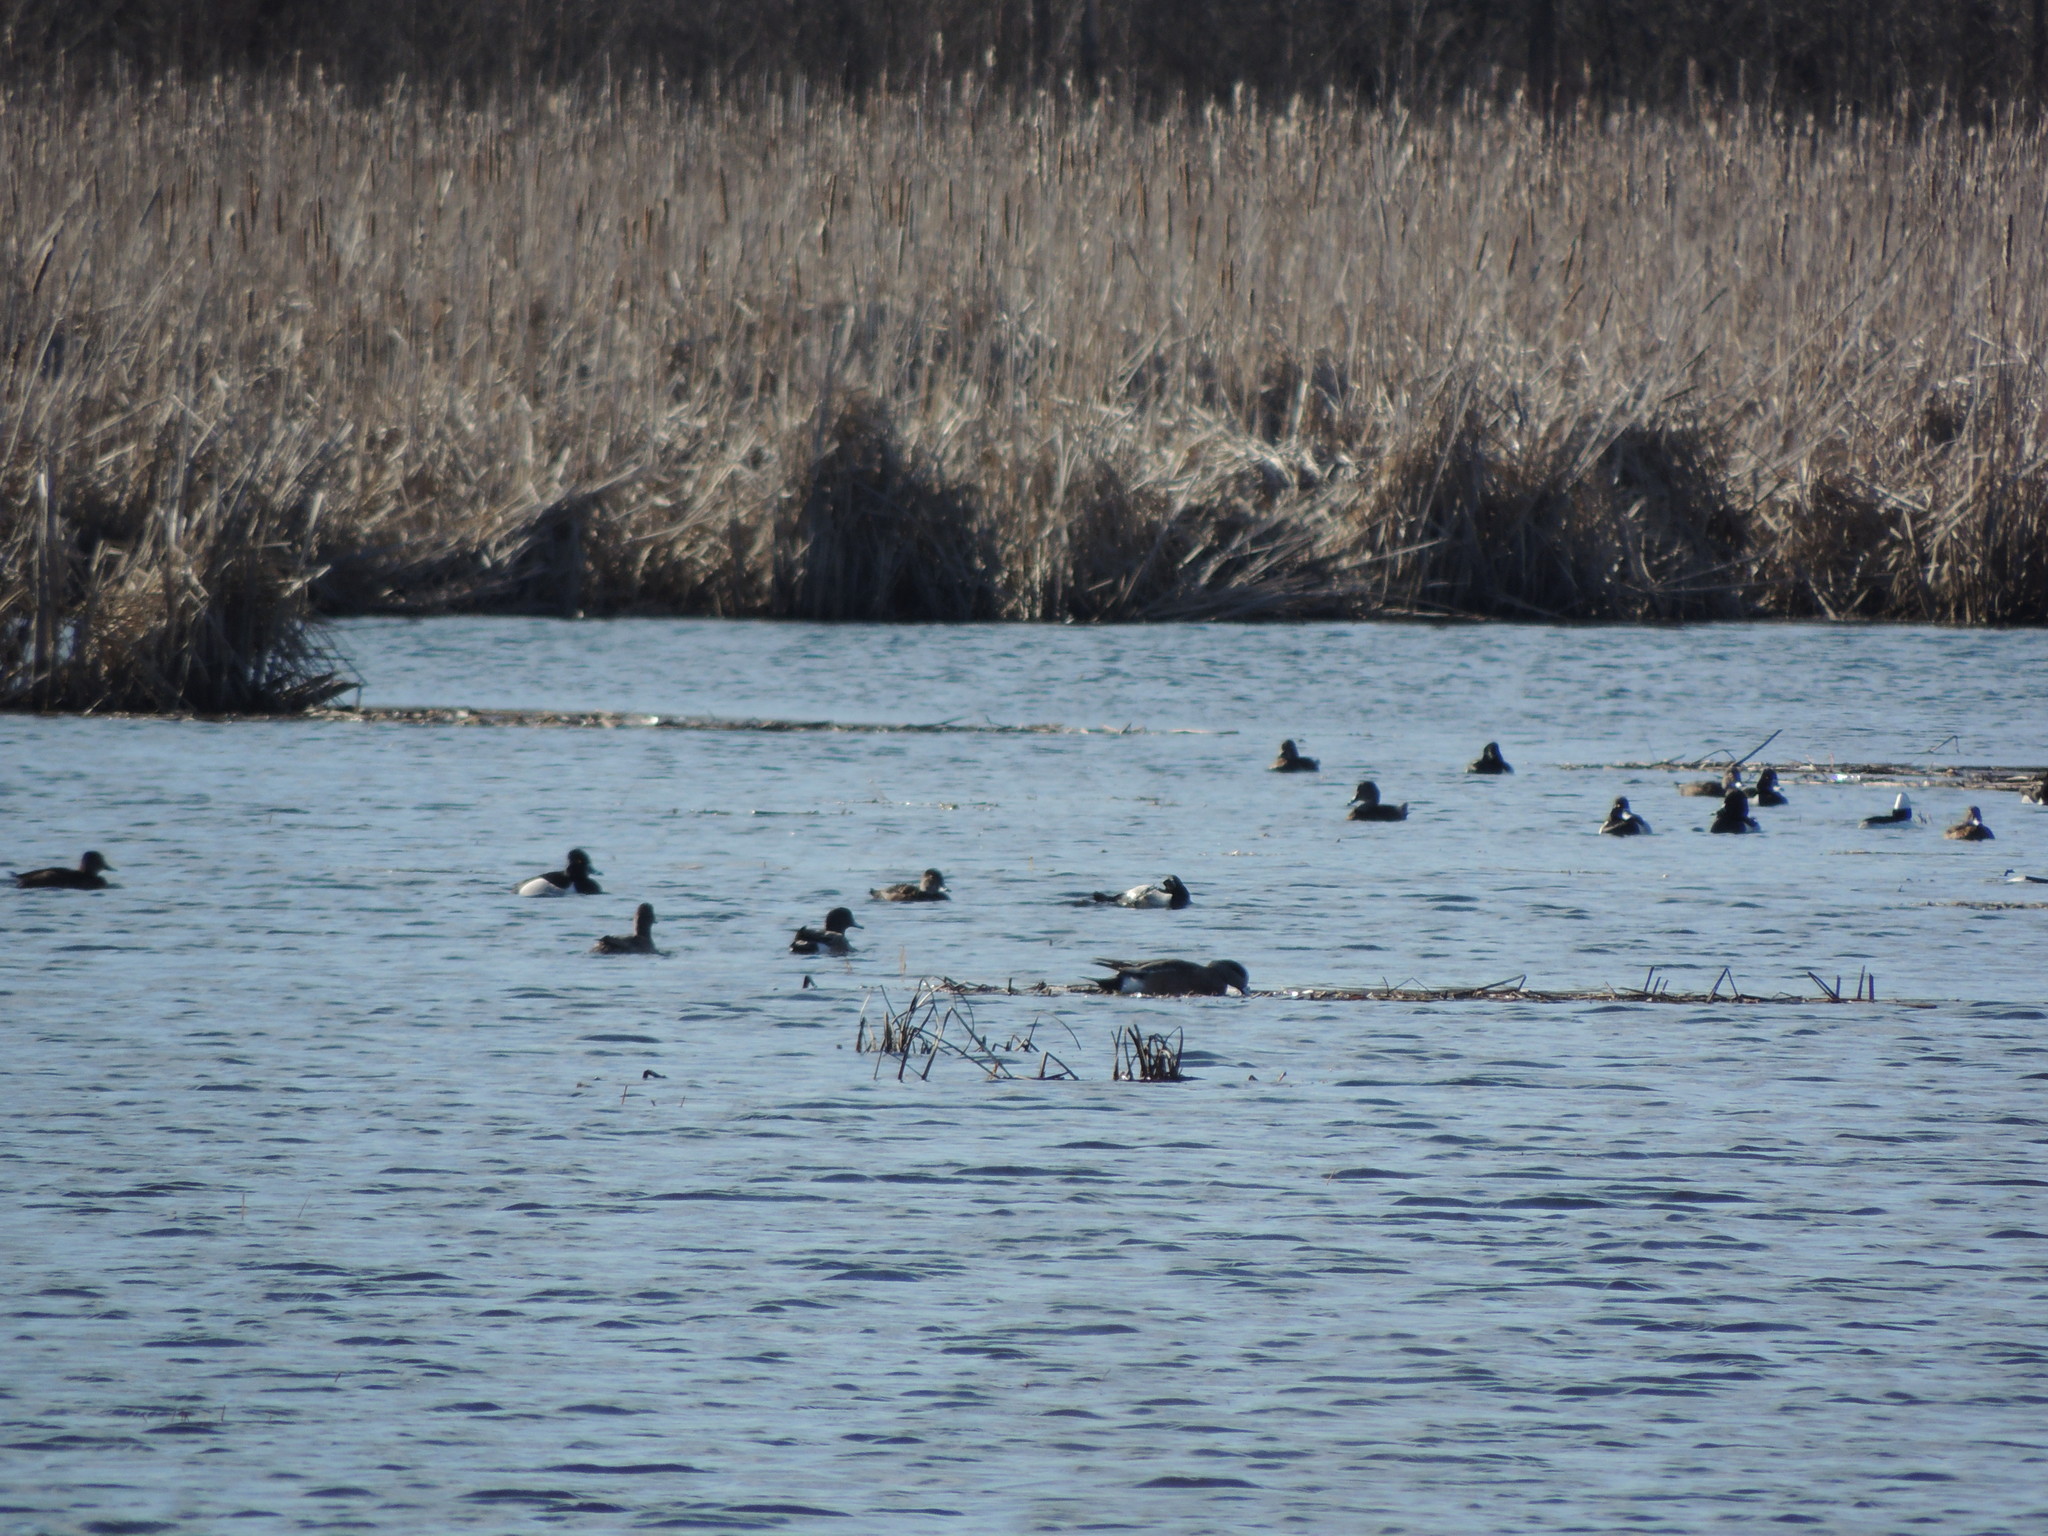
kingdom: Animalia
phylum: Chordata
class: Aves
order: Anseriformes
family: Anatidae
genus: Aythya
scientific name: Aythya collaris
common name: Ring-necked duck
